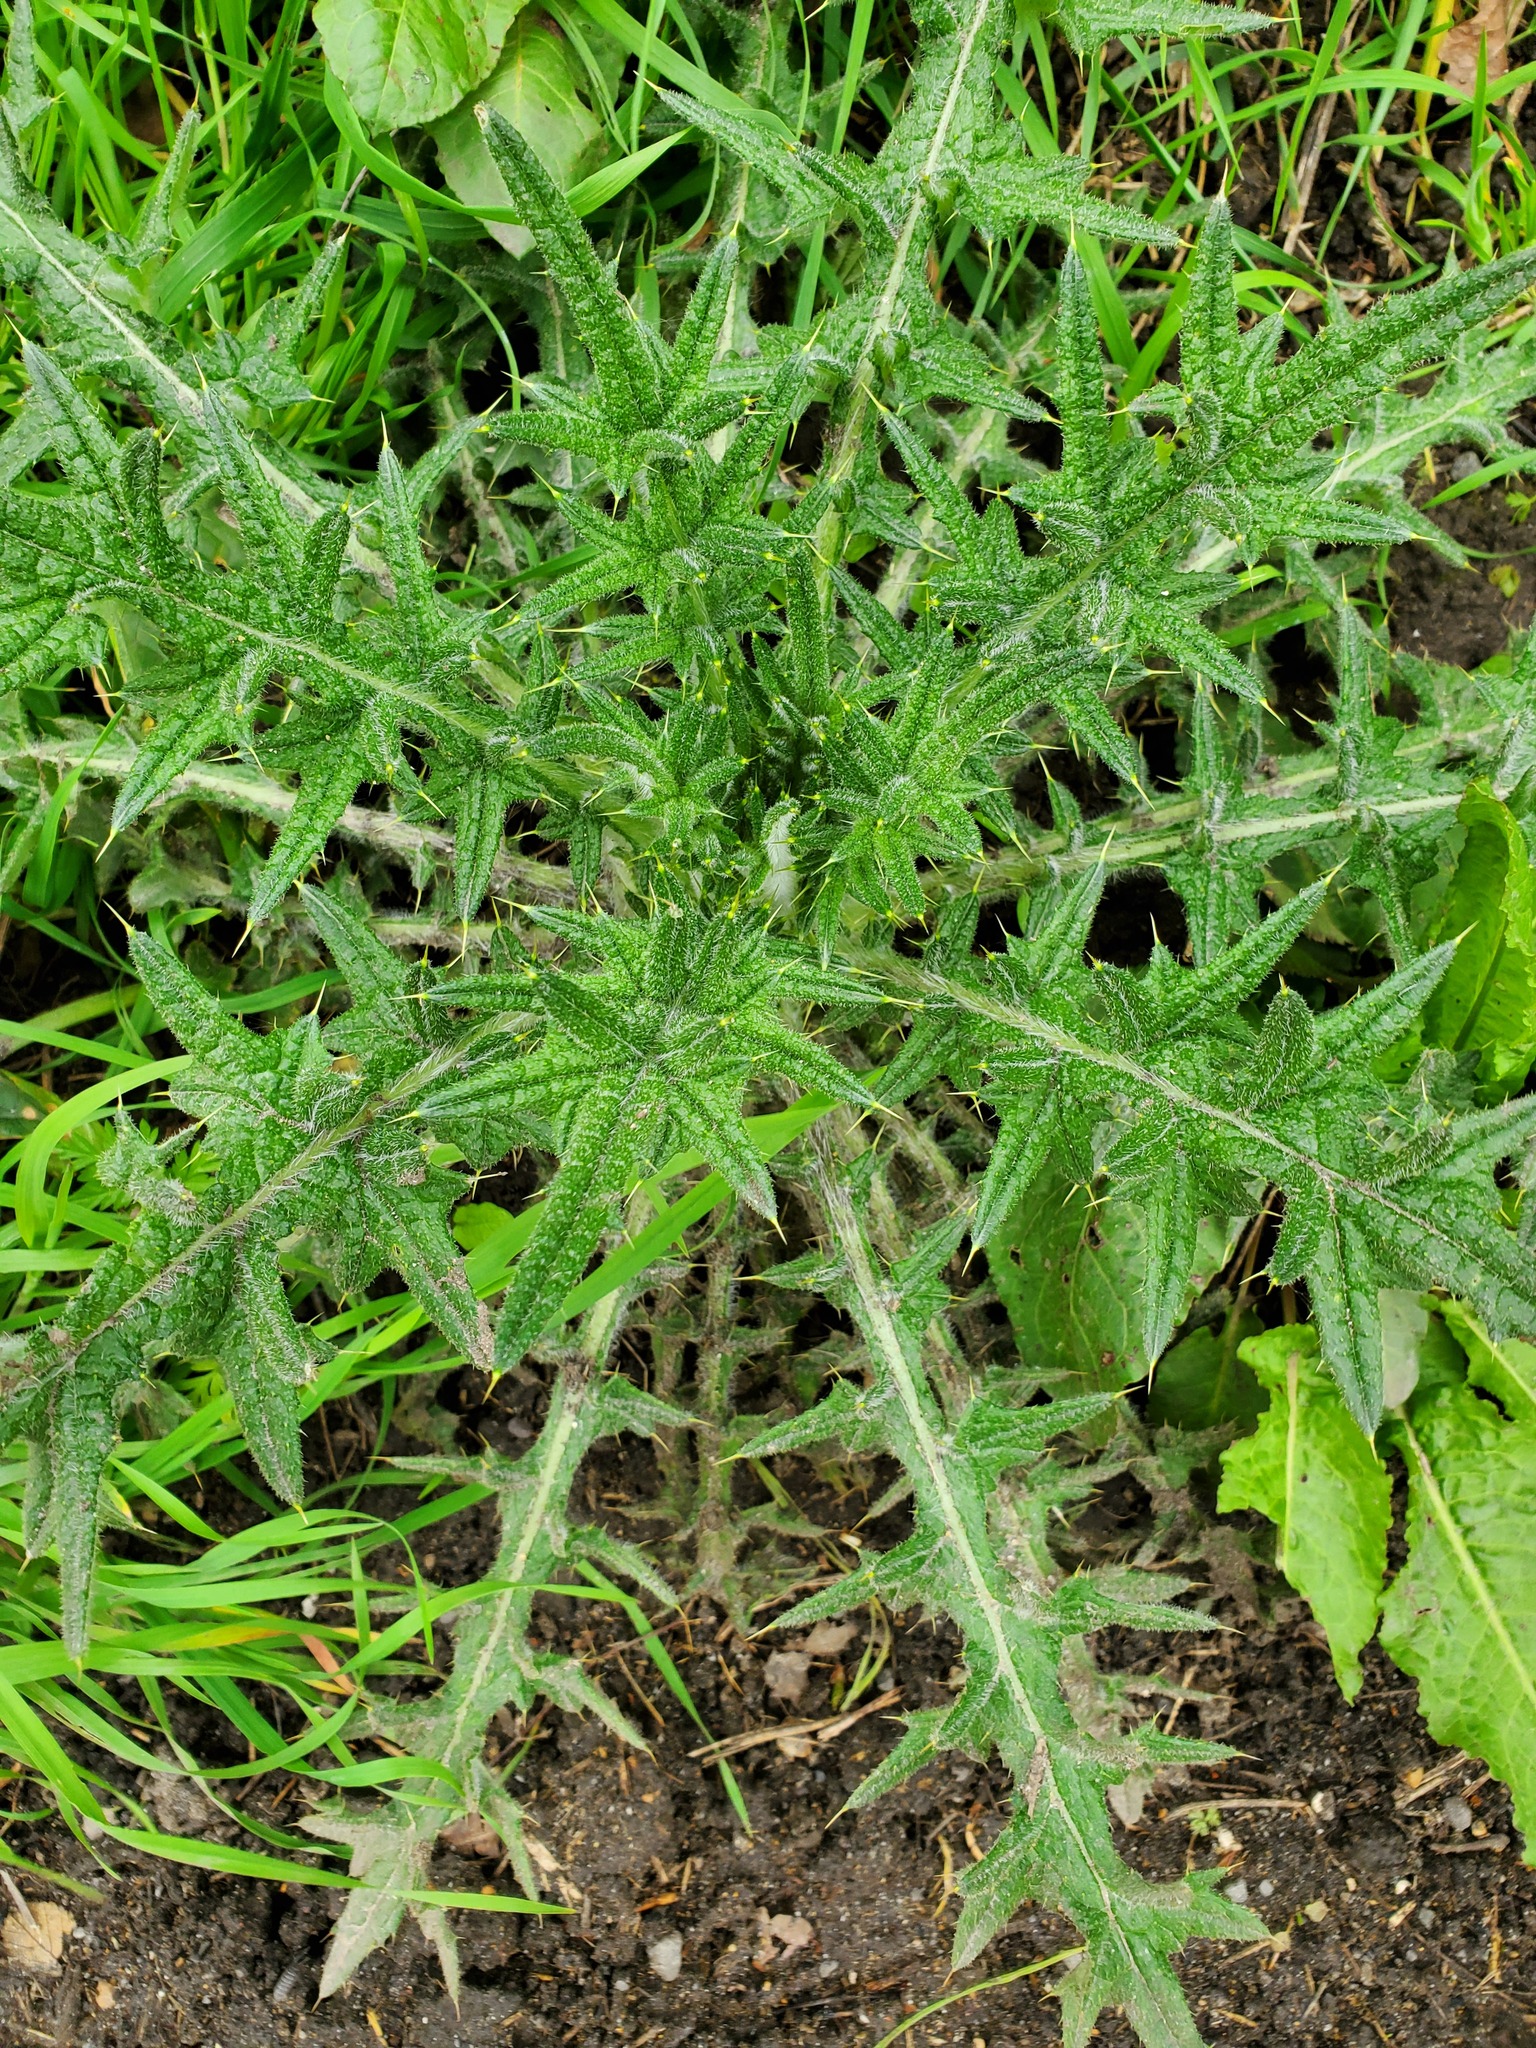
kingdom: Plantae
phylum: Tracheophyta
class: Magnoliopsida
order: Asterales
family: Asteraceae
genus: Cirsium
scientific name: Cirsium vulgare
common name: Bull thistle
